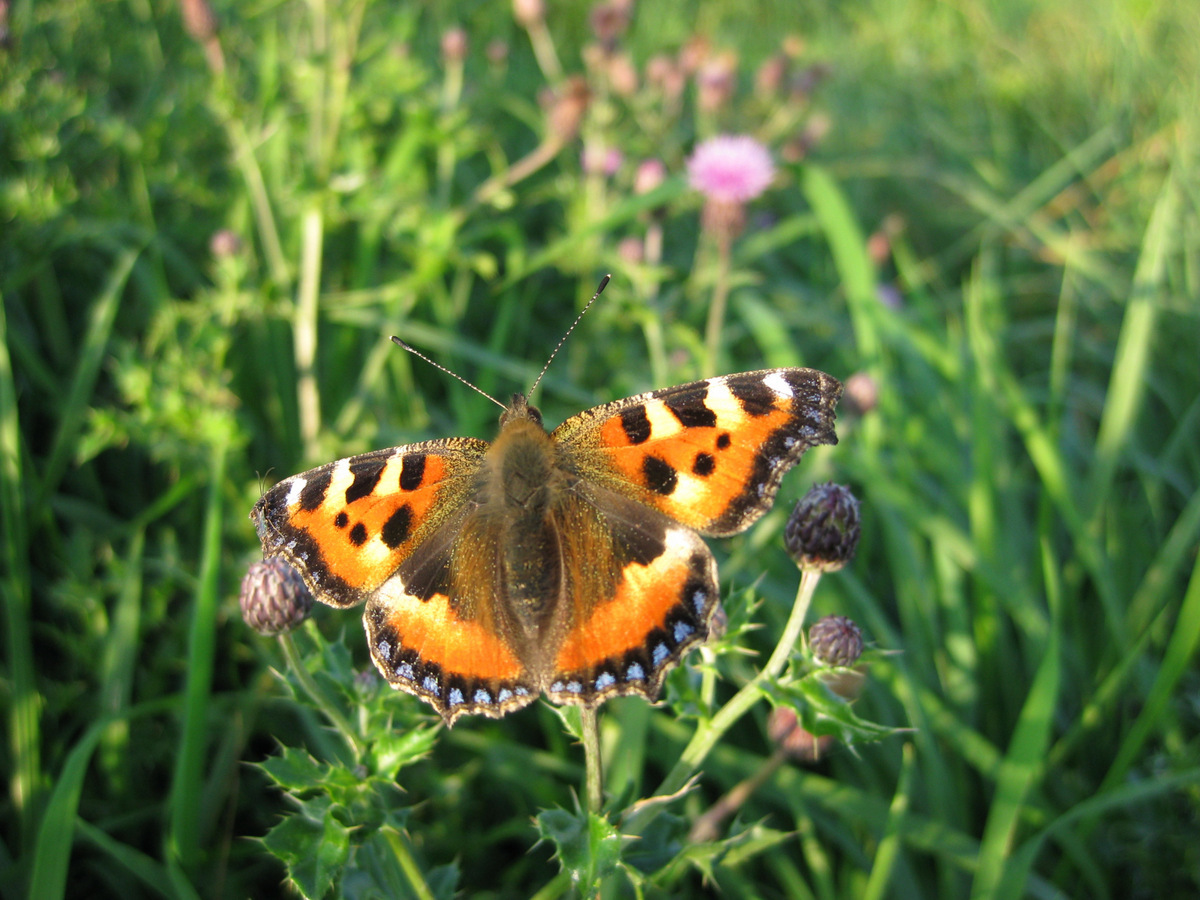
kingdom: Animalia
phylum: Arthropoda
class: Insecta
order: Lepidoptera
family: Nymphalidae
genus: Aglais
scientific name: Aglais urticae
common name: Small tortoiseshell
